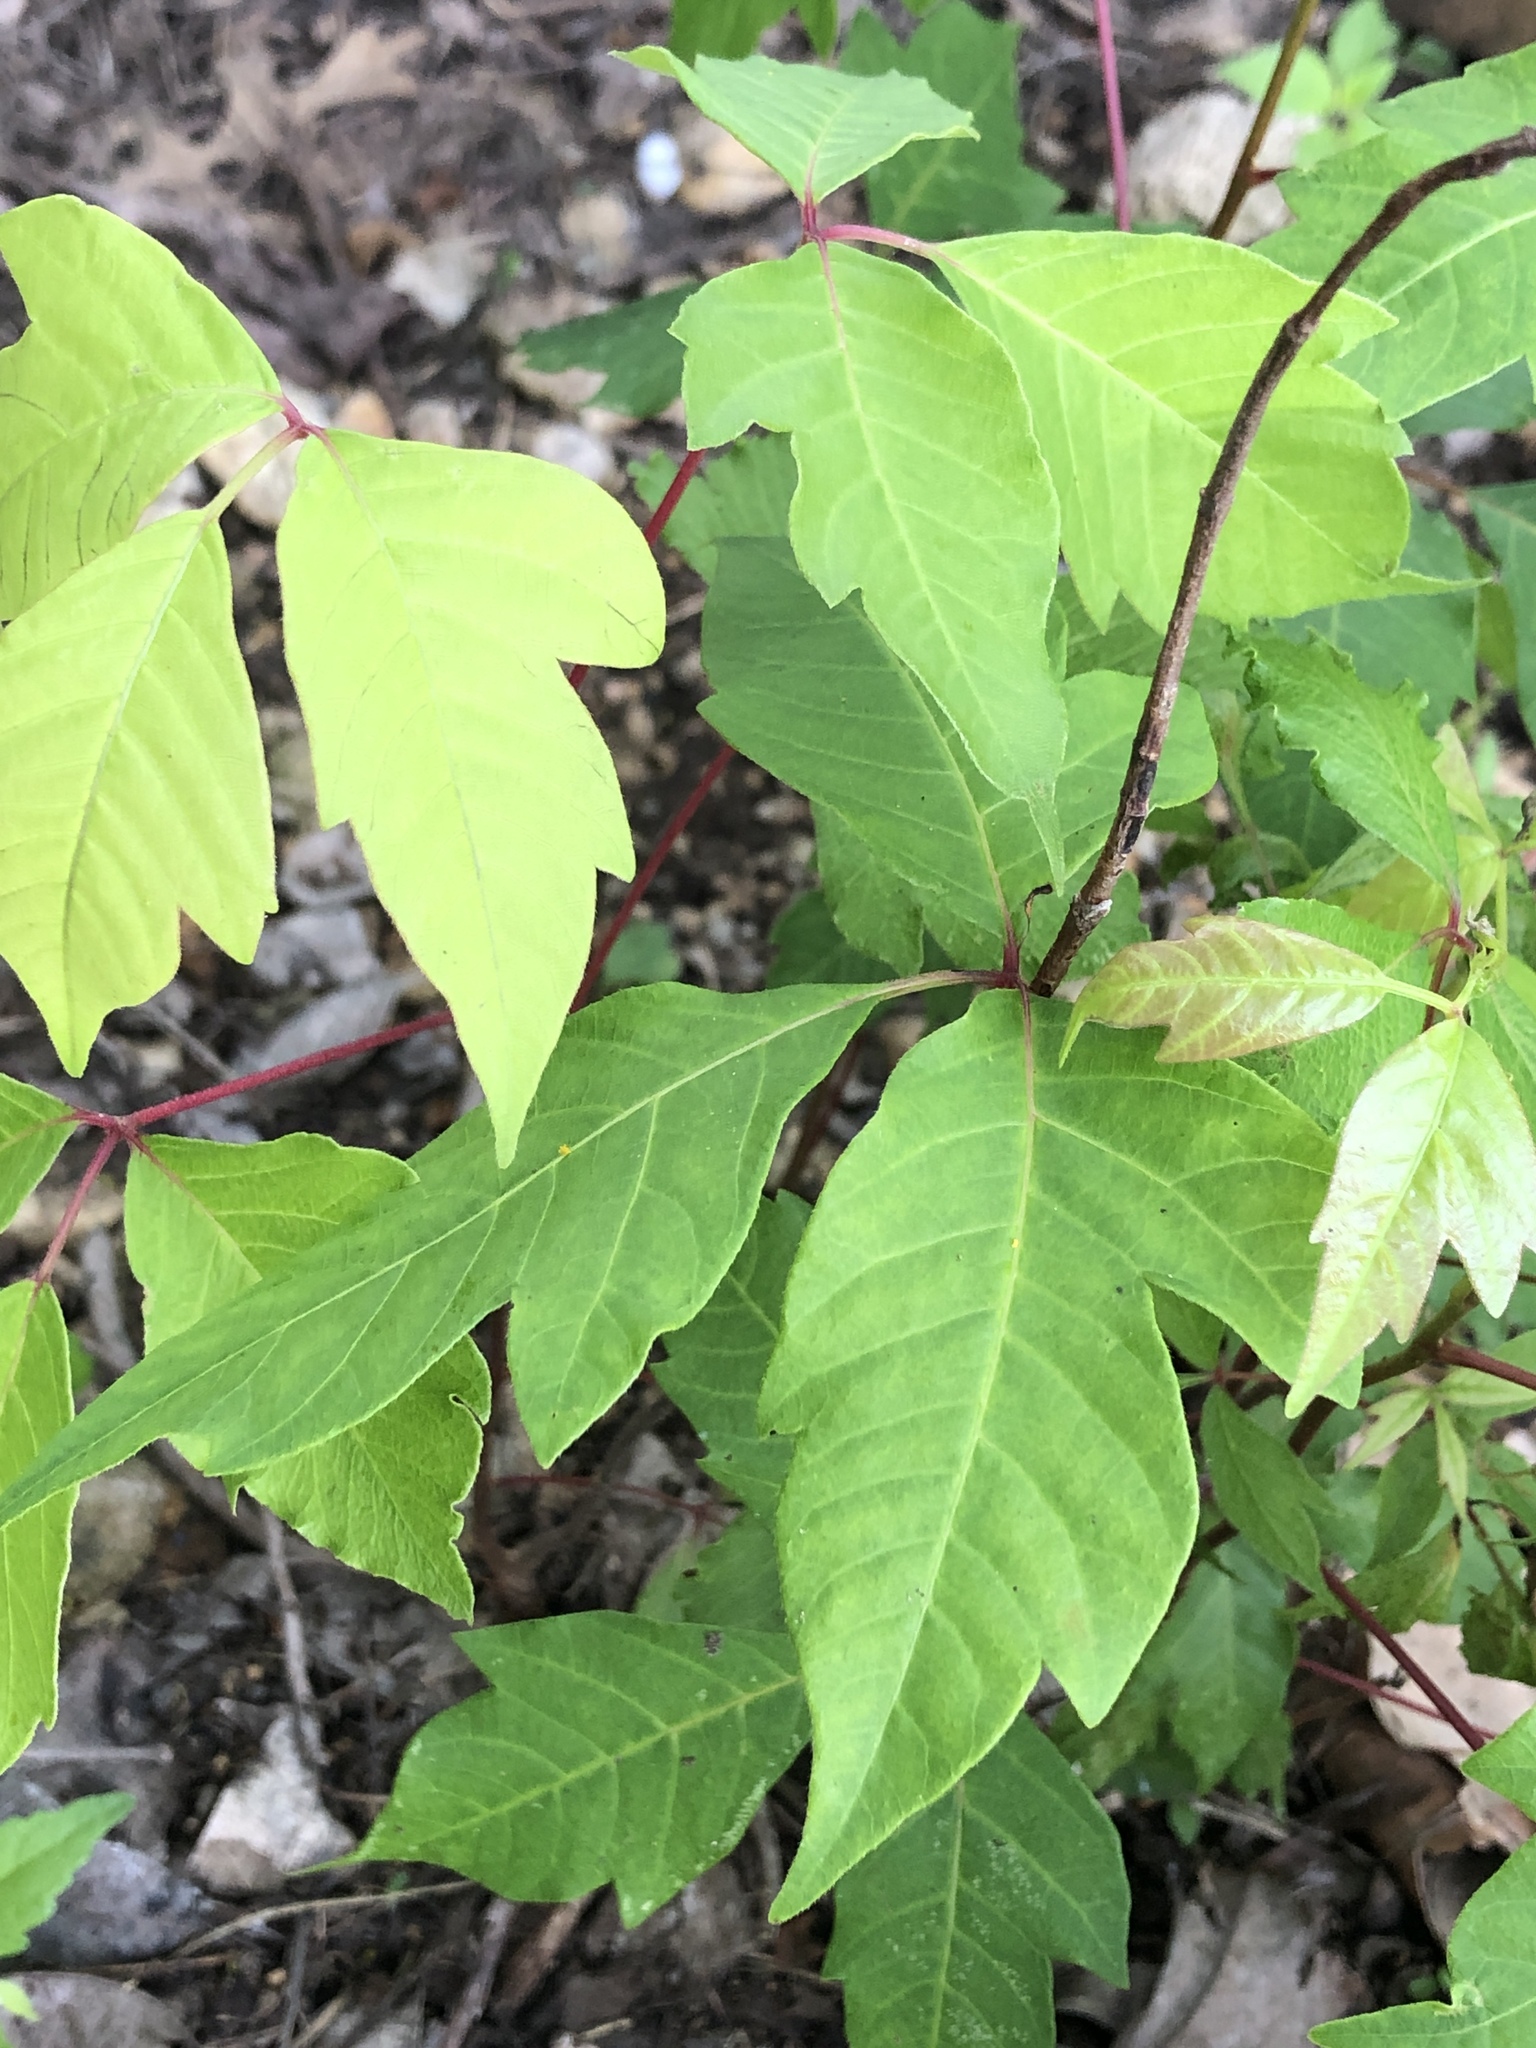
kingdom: Plantae
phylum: Tracheophyta
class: Magnoliopsida
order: Sapindales
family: Anacardiaceae
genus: Toxicodendron
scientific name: Toxicodendron radicans
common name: Poison ivy
